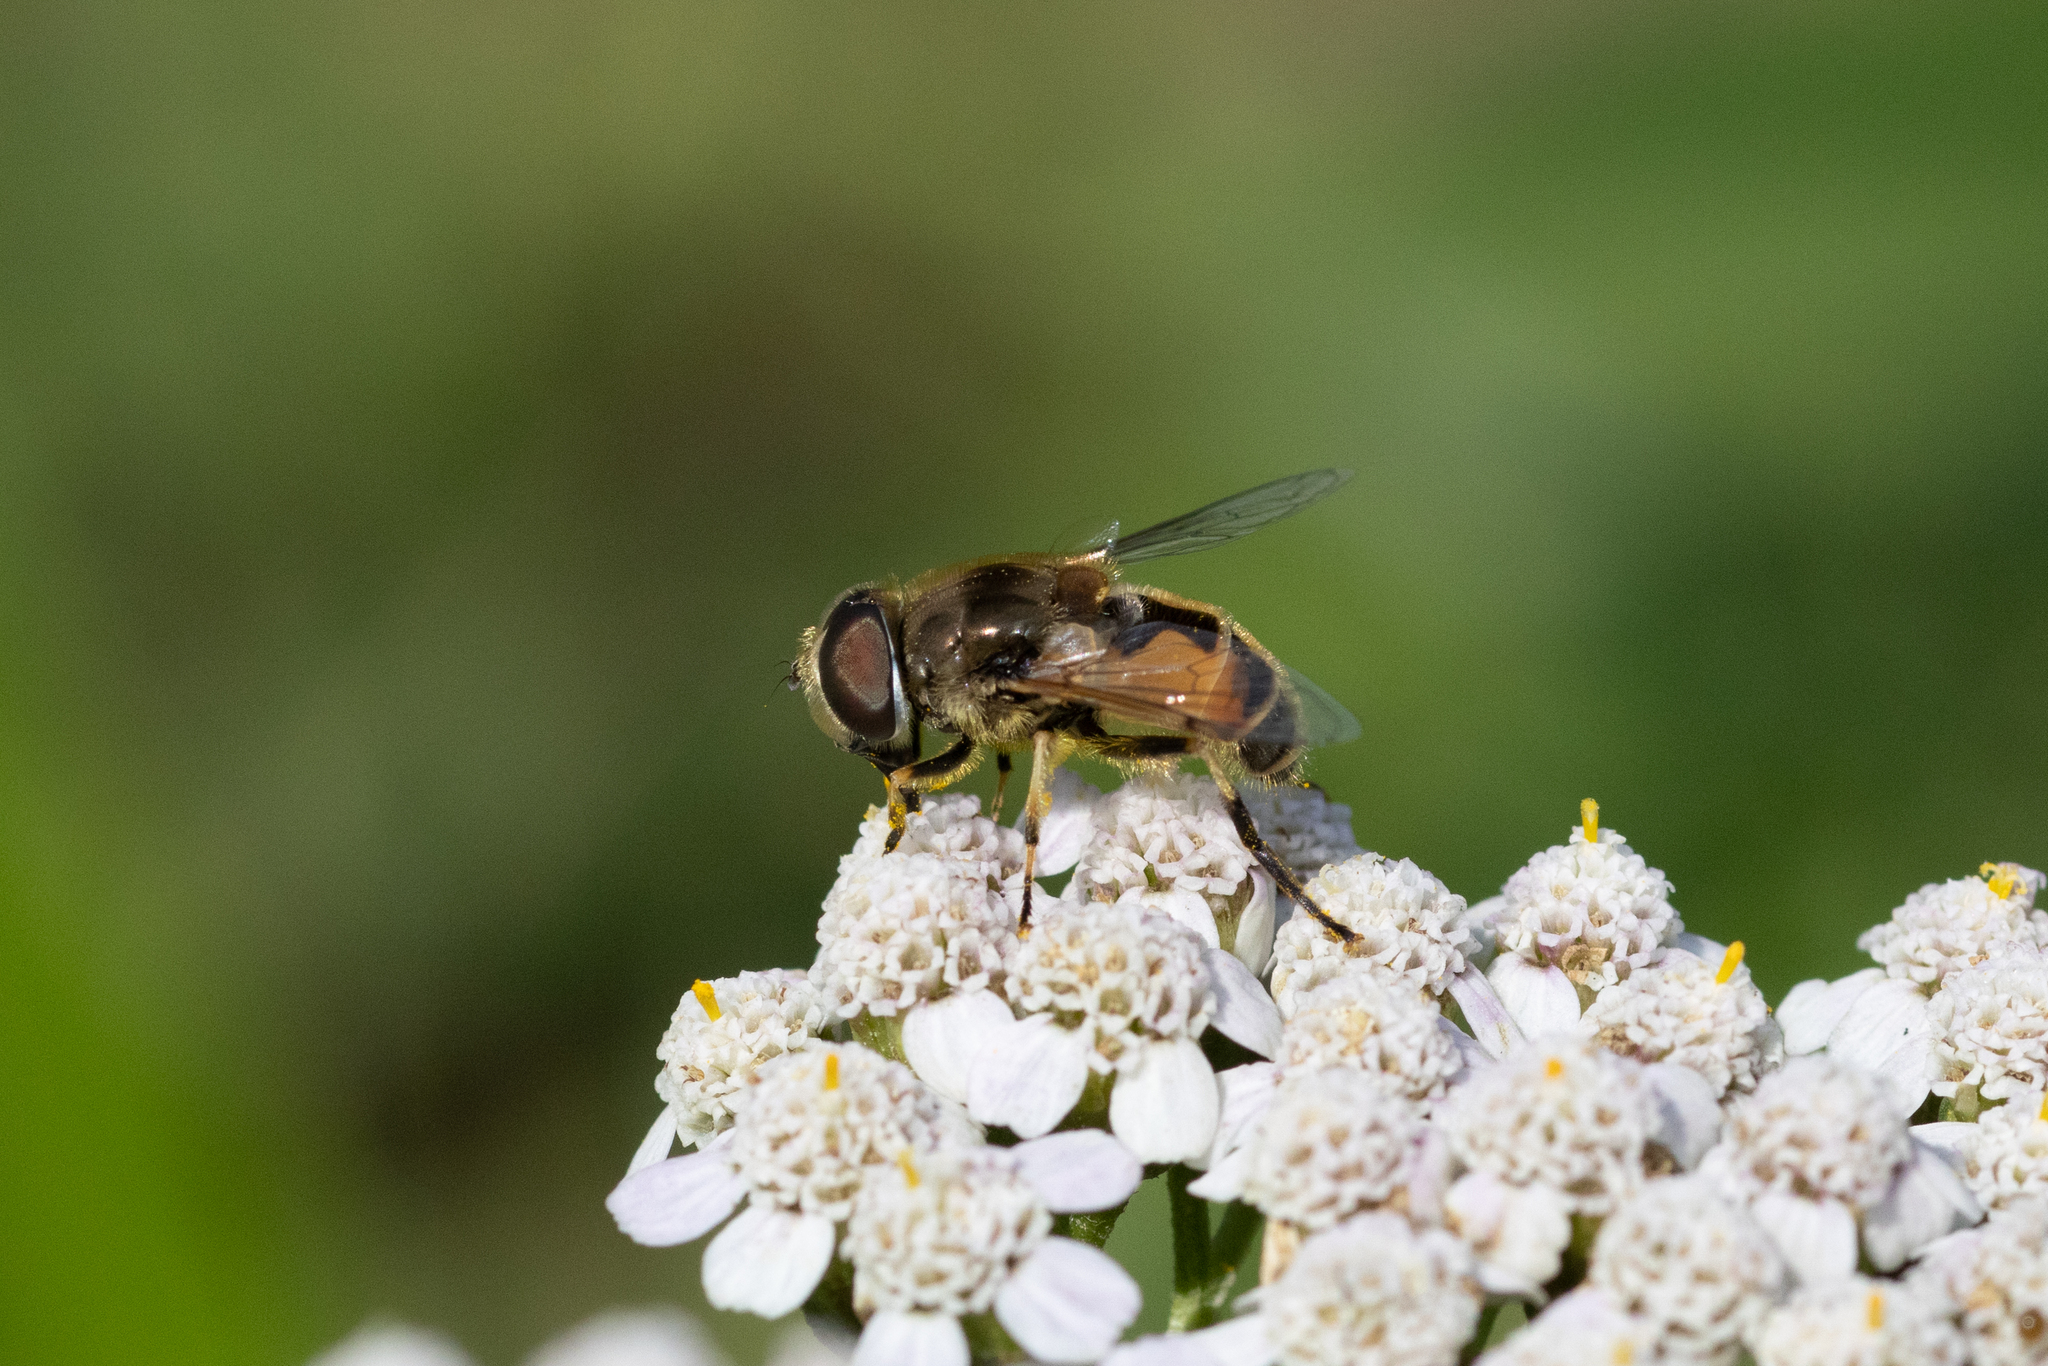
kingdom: Animalia
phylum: Arthropoda
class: Insecta
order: Diptera
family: Syrphidae
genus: Eristalis
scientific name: Eristalis arbustorum
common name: Hover fly
